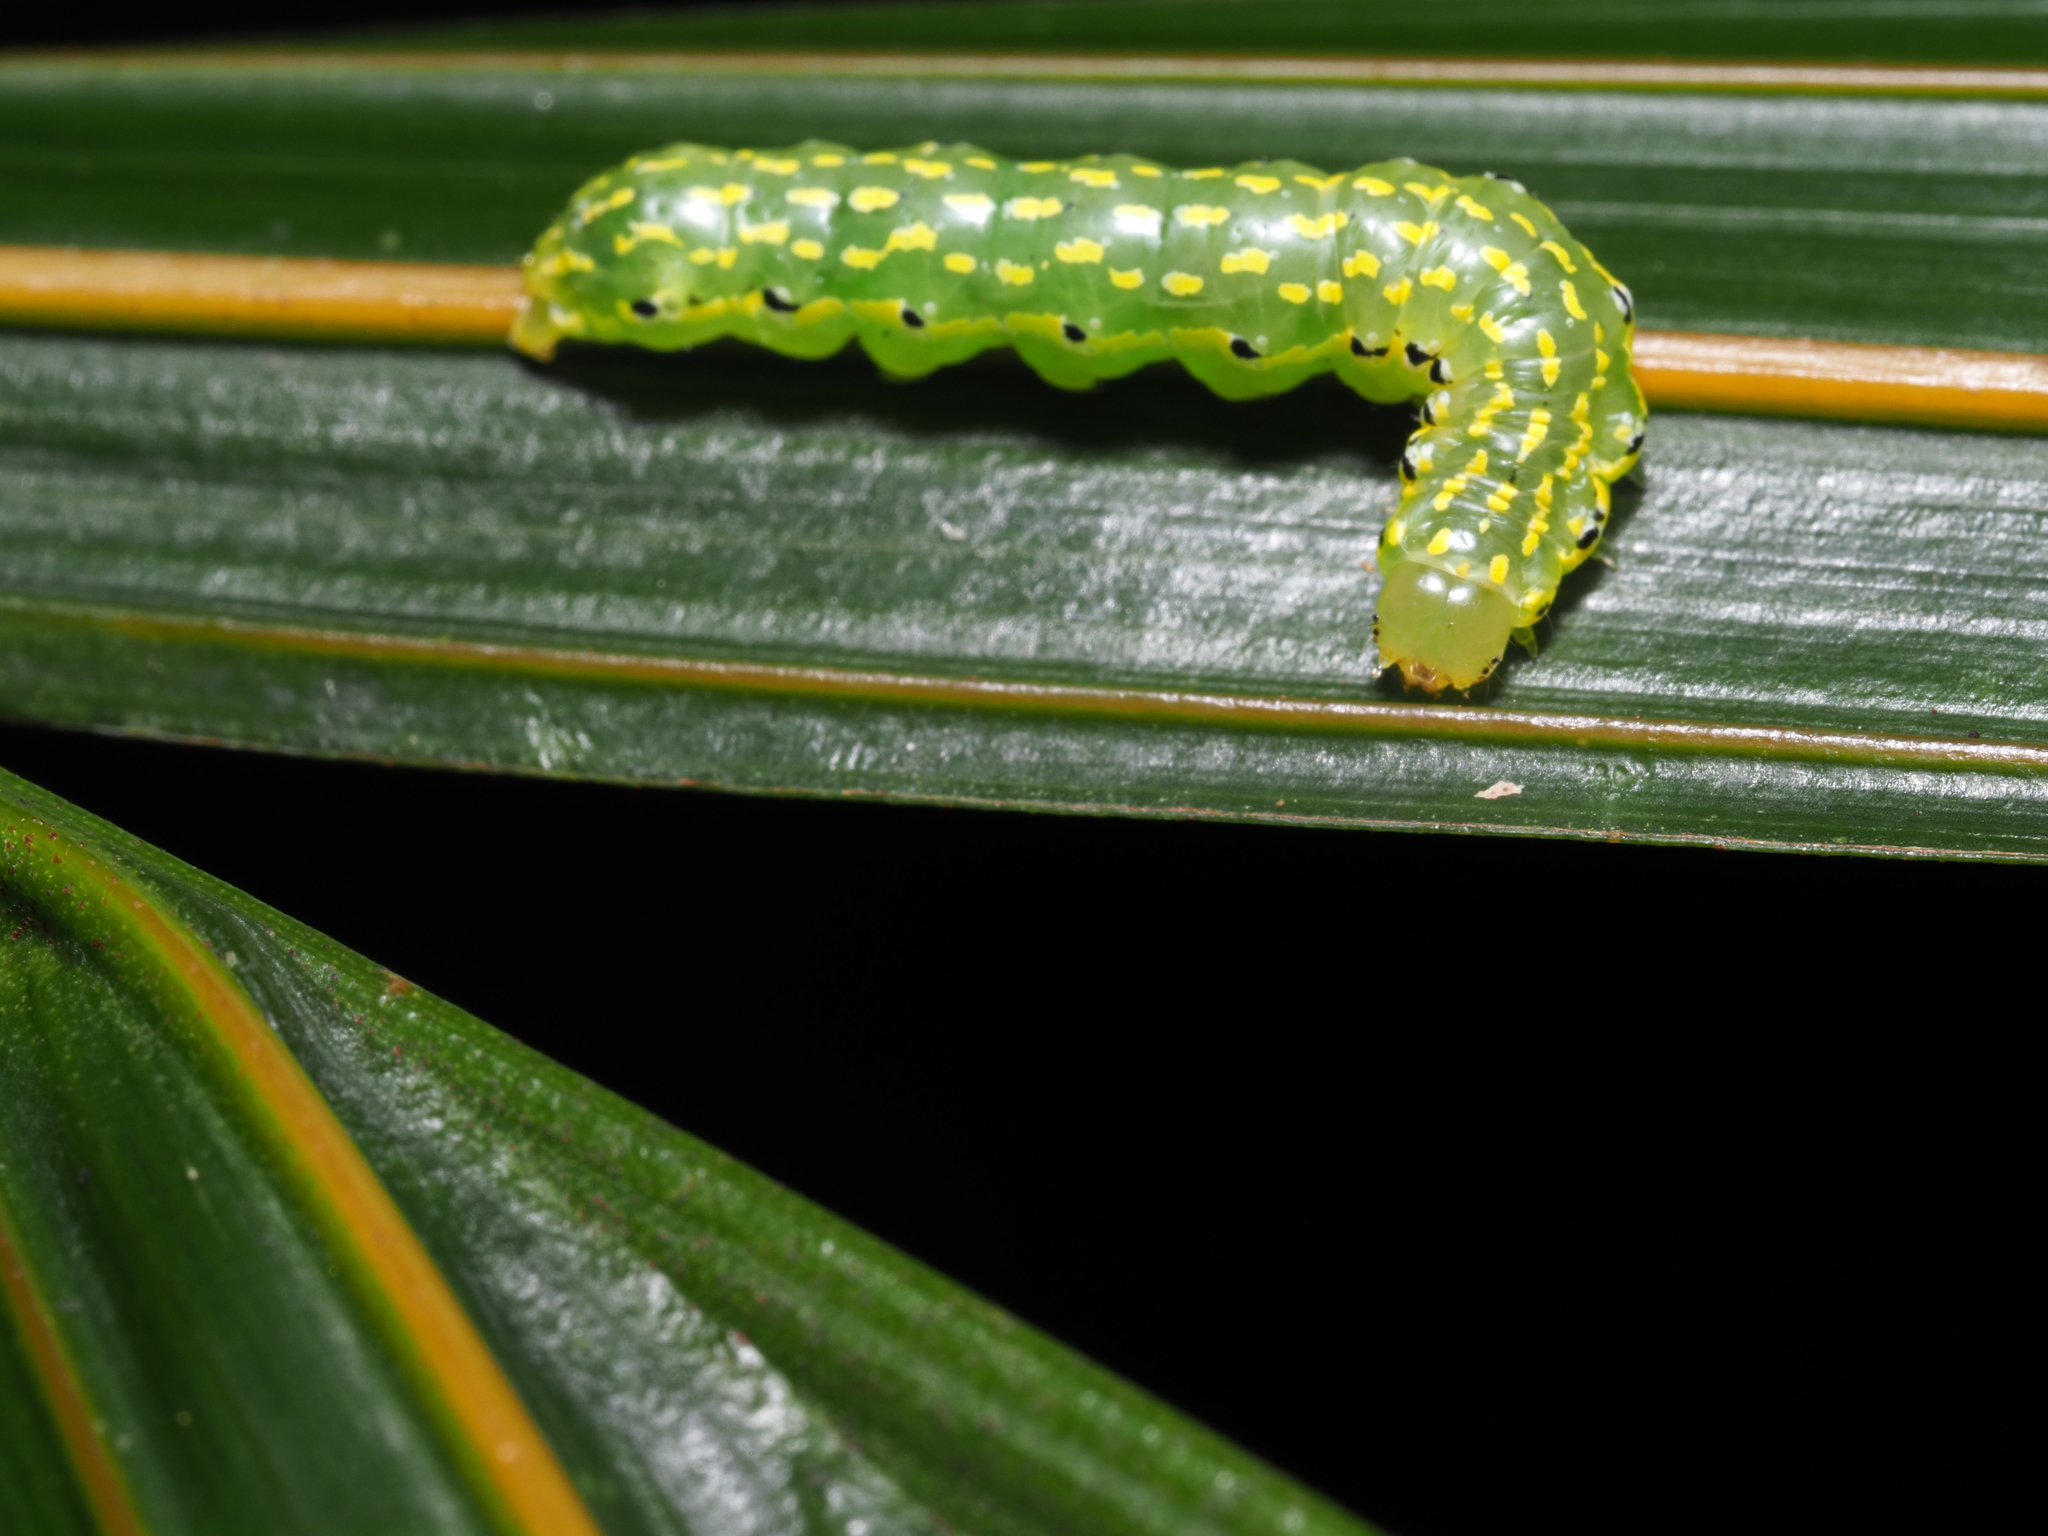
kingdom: Animalia
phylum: Arthropoda
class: Insecta
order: Lepidoptera
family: Noctuidae
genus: Austramathes
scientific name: Austramathes purpurea
